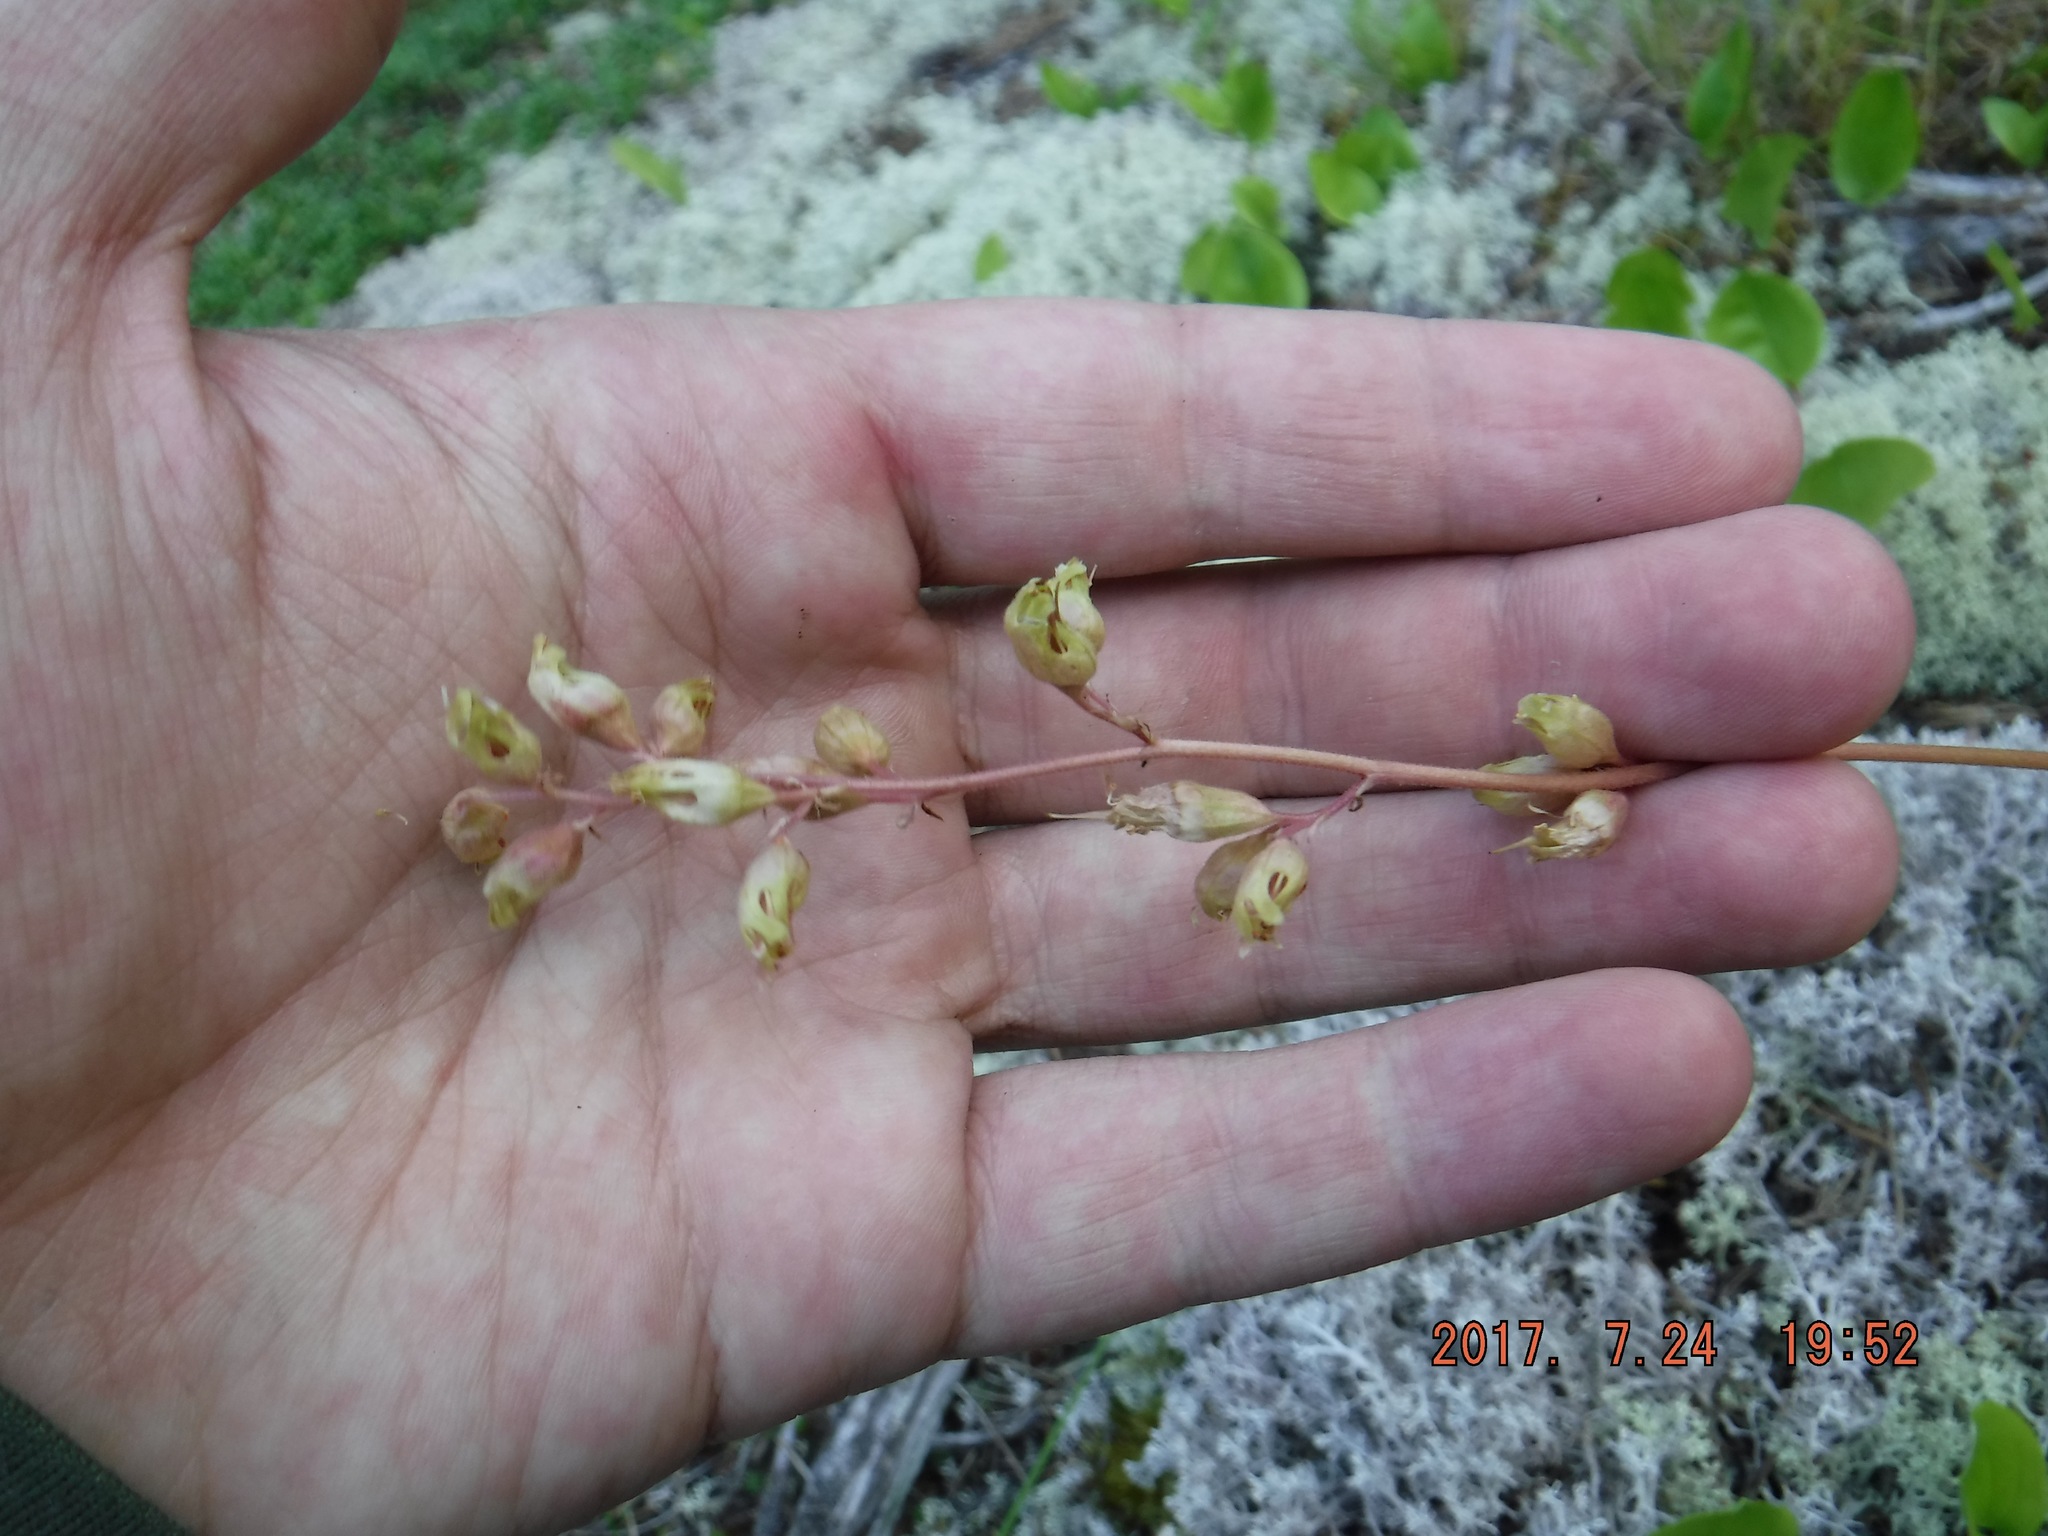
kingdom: Plantae
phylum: Tracheophyta
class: Magnoliopsida
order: Saxifragales
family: Saxifragaceae
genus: Heuchera
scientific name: Heuchera richardsonii
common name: Richardson's alumroot
